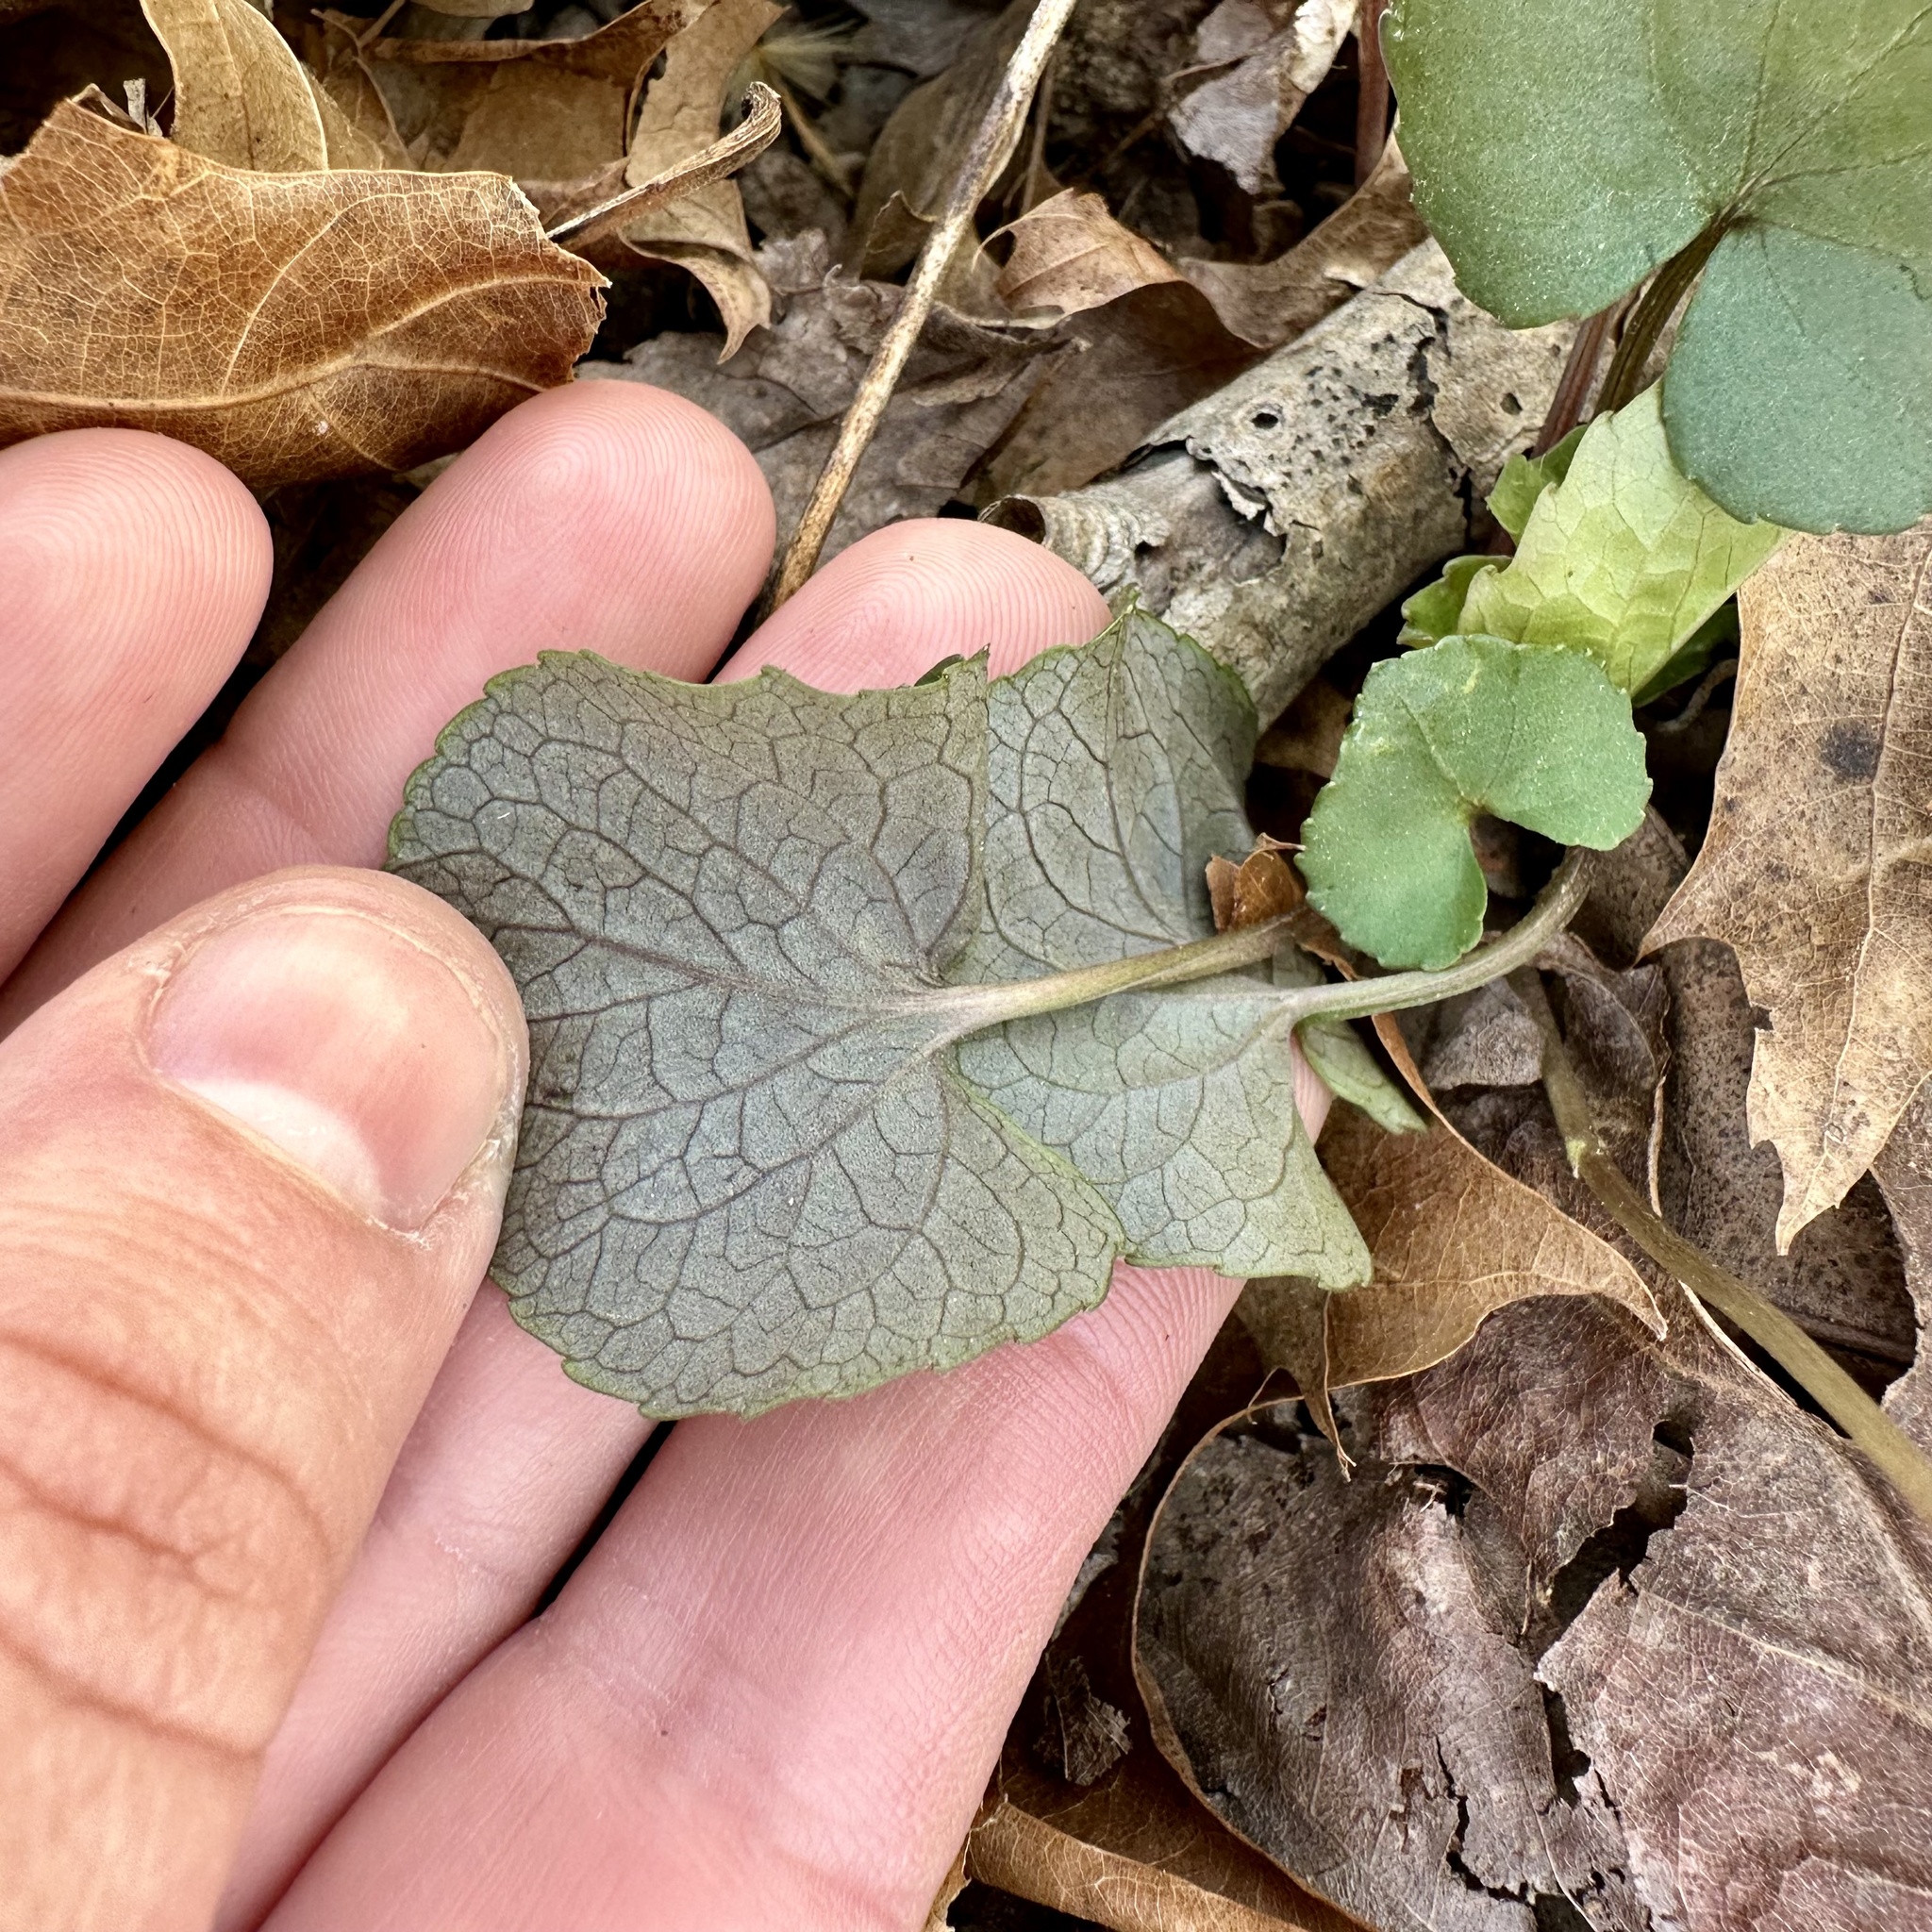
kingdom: Plantae
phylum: Tracheophyta
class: Magnoliopsida
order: Malpighiales
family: Violaceae
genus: Viola
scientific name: Viola sororia
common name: Dooryard violet
